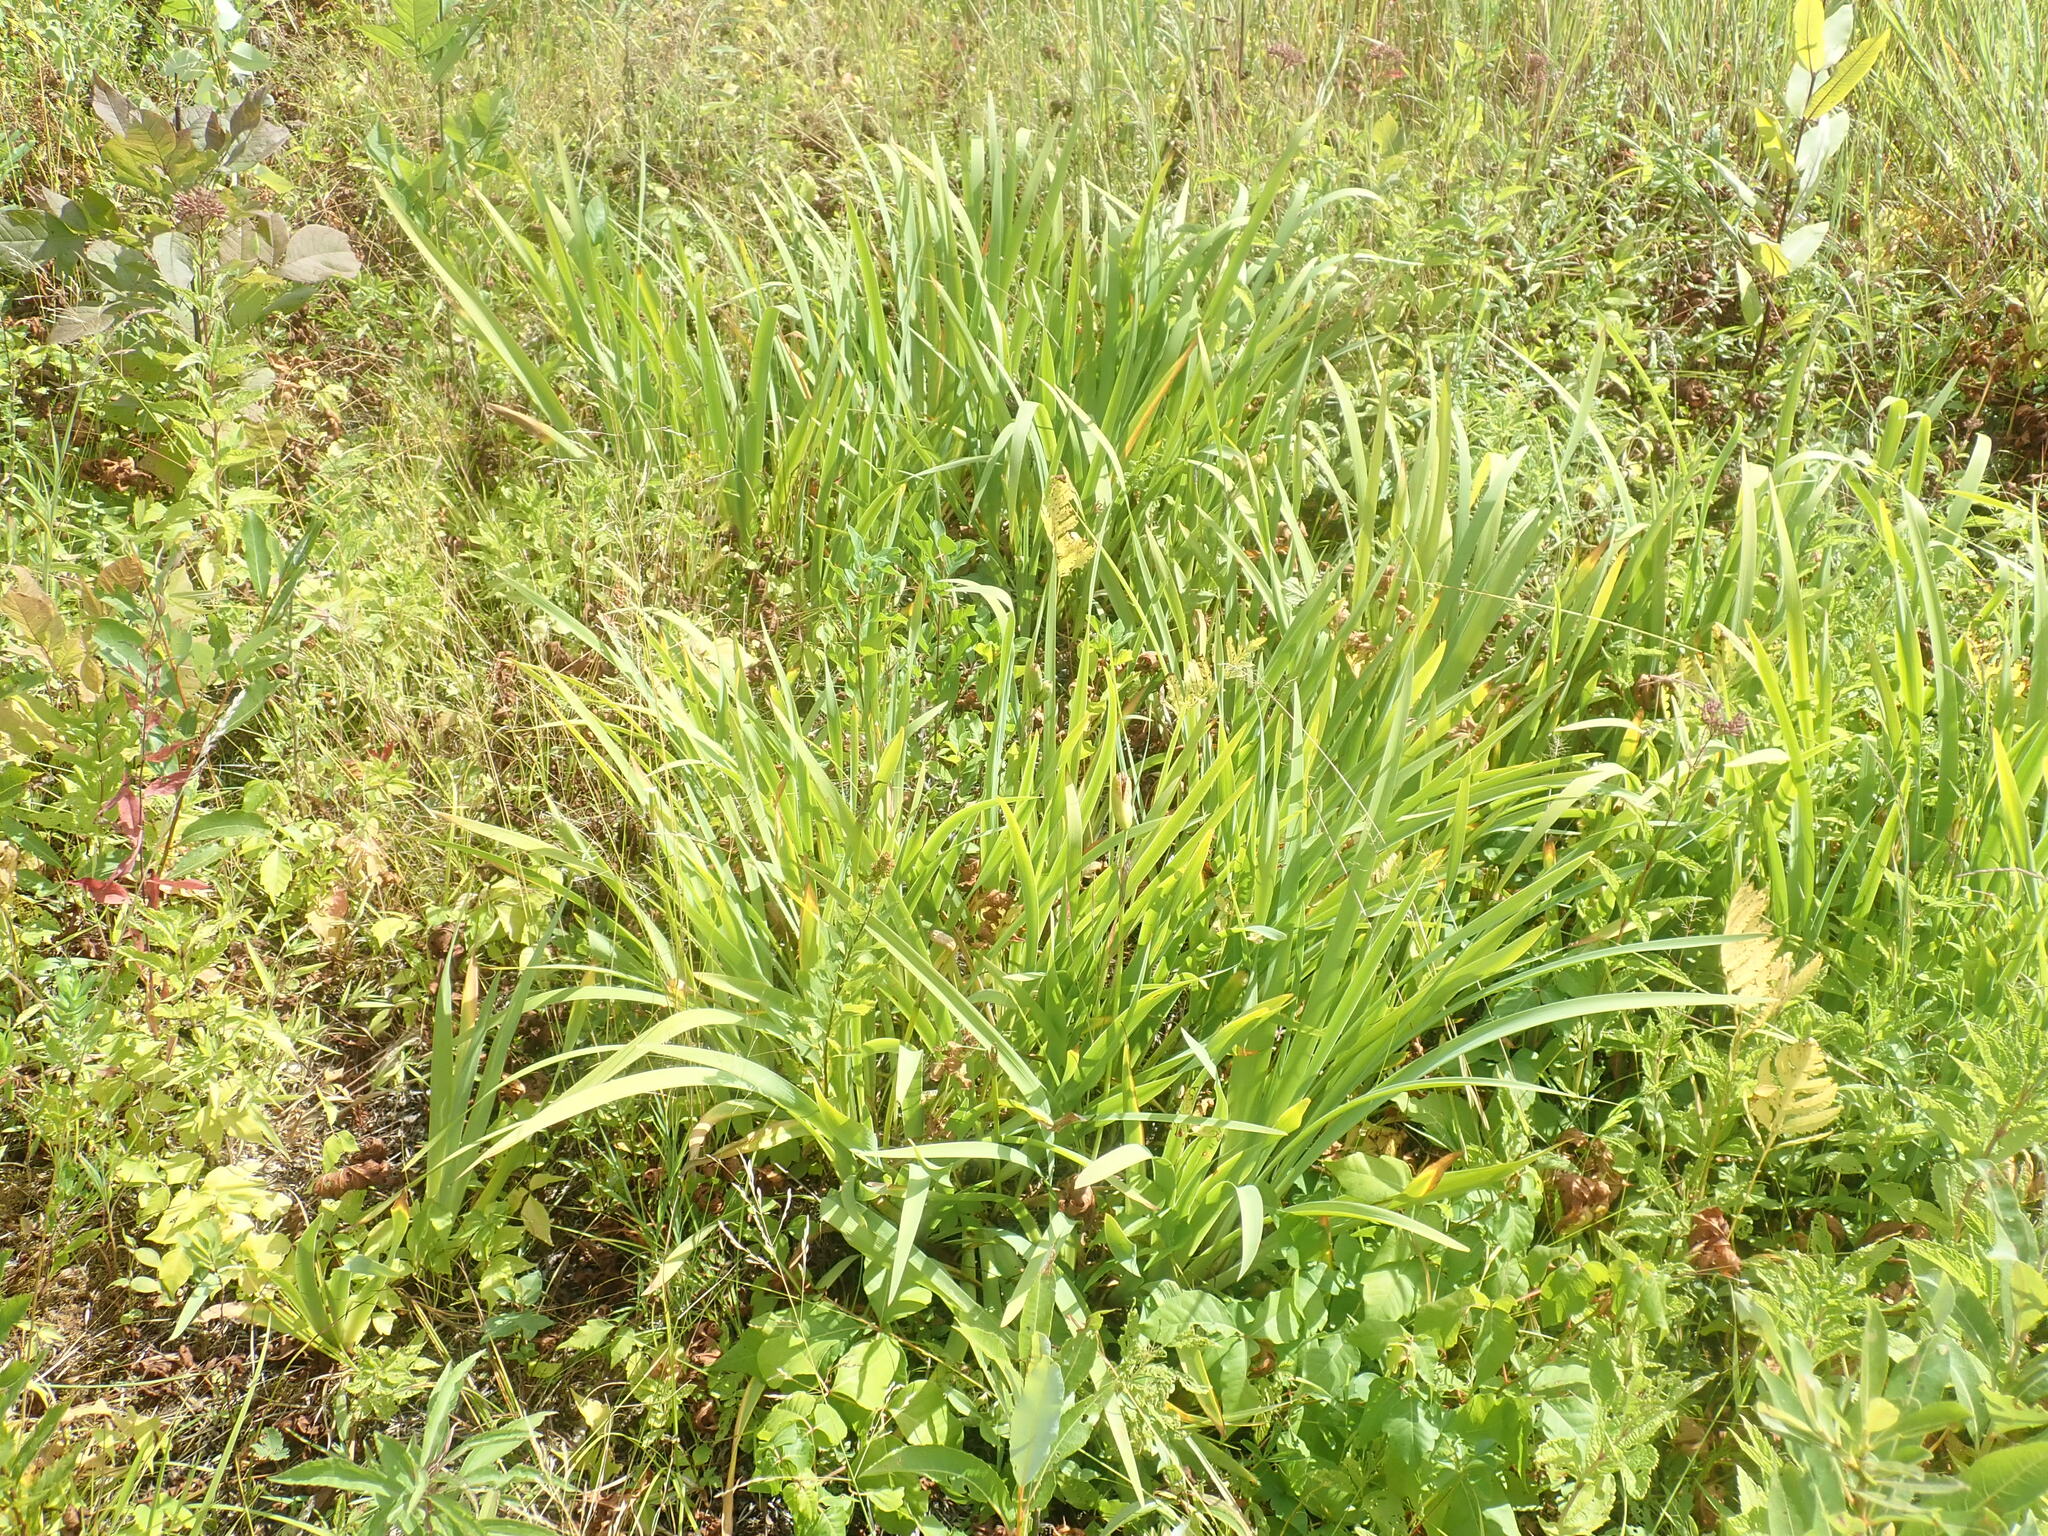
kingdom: Plantae
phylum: Tracheophyta
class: Liliopsida
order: Asparagales
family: Iridaceae
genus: Iris
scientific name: Iris
